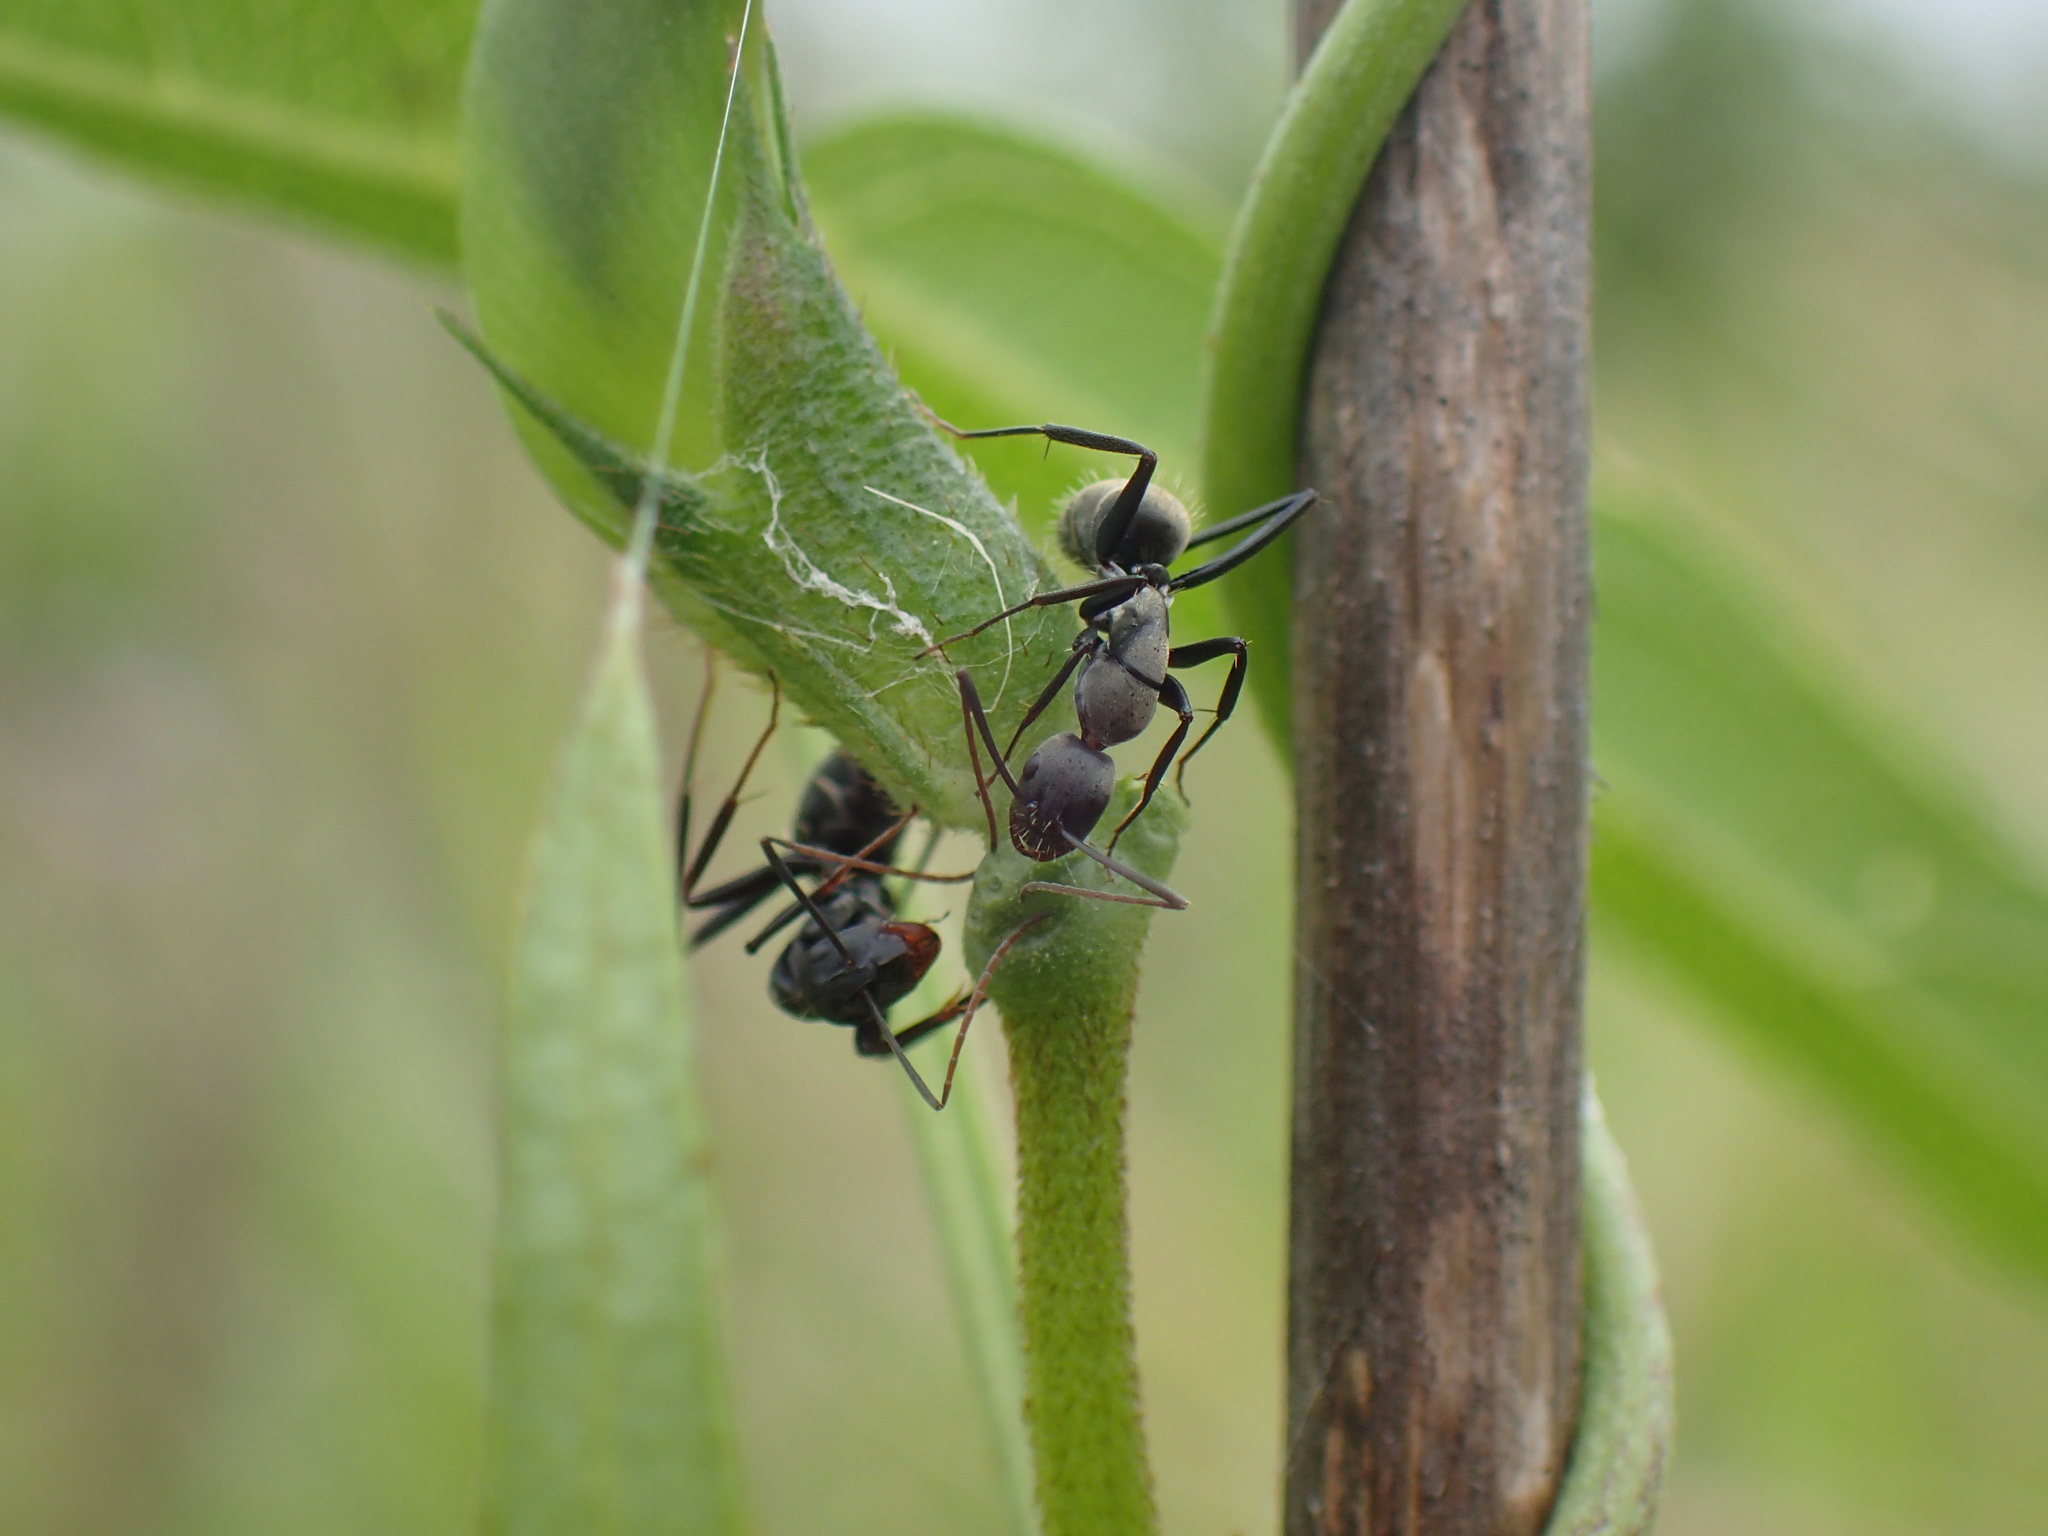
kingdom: Animalia
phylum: Arthropoda
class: Insecta
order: Hymenoptera
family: Formicidae
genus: Camponotus
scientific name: Camponotus cinctellus
